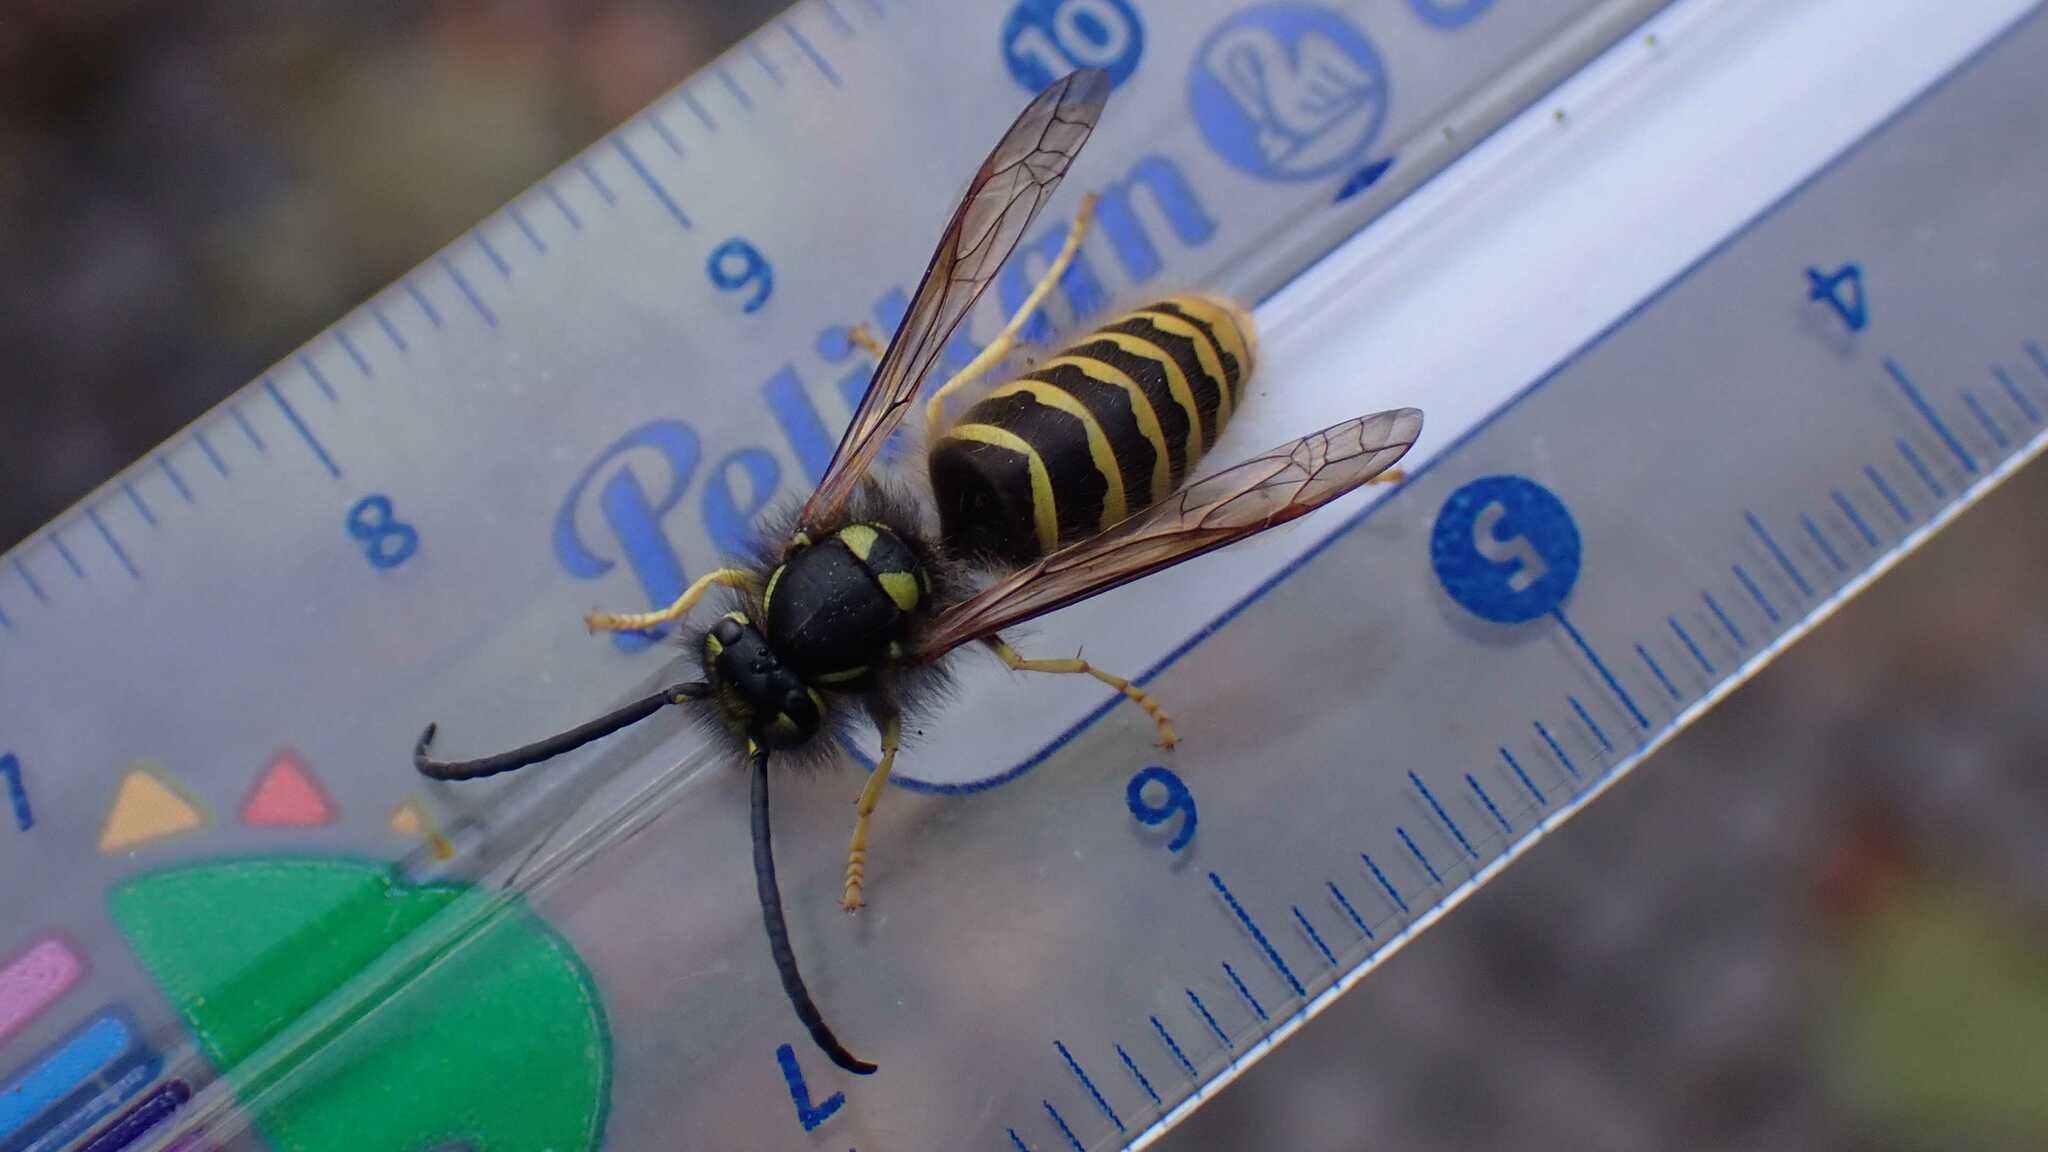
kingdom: Animalia
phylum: Arthropoda
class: Insecta
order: Hymenoptera
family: Vespidae
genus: Vespula
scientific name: Vespula vulgaris
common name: Common wasp
